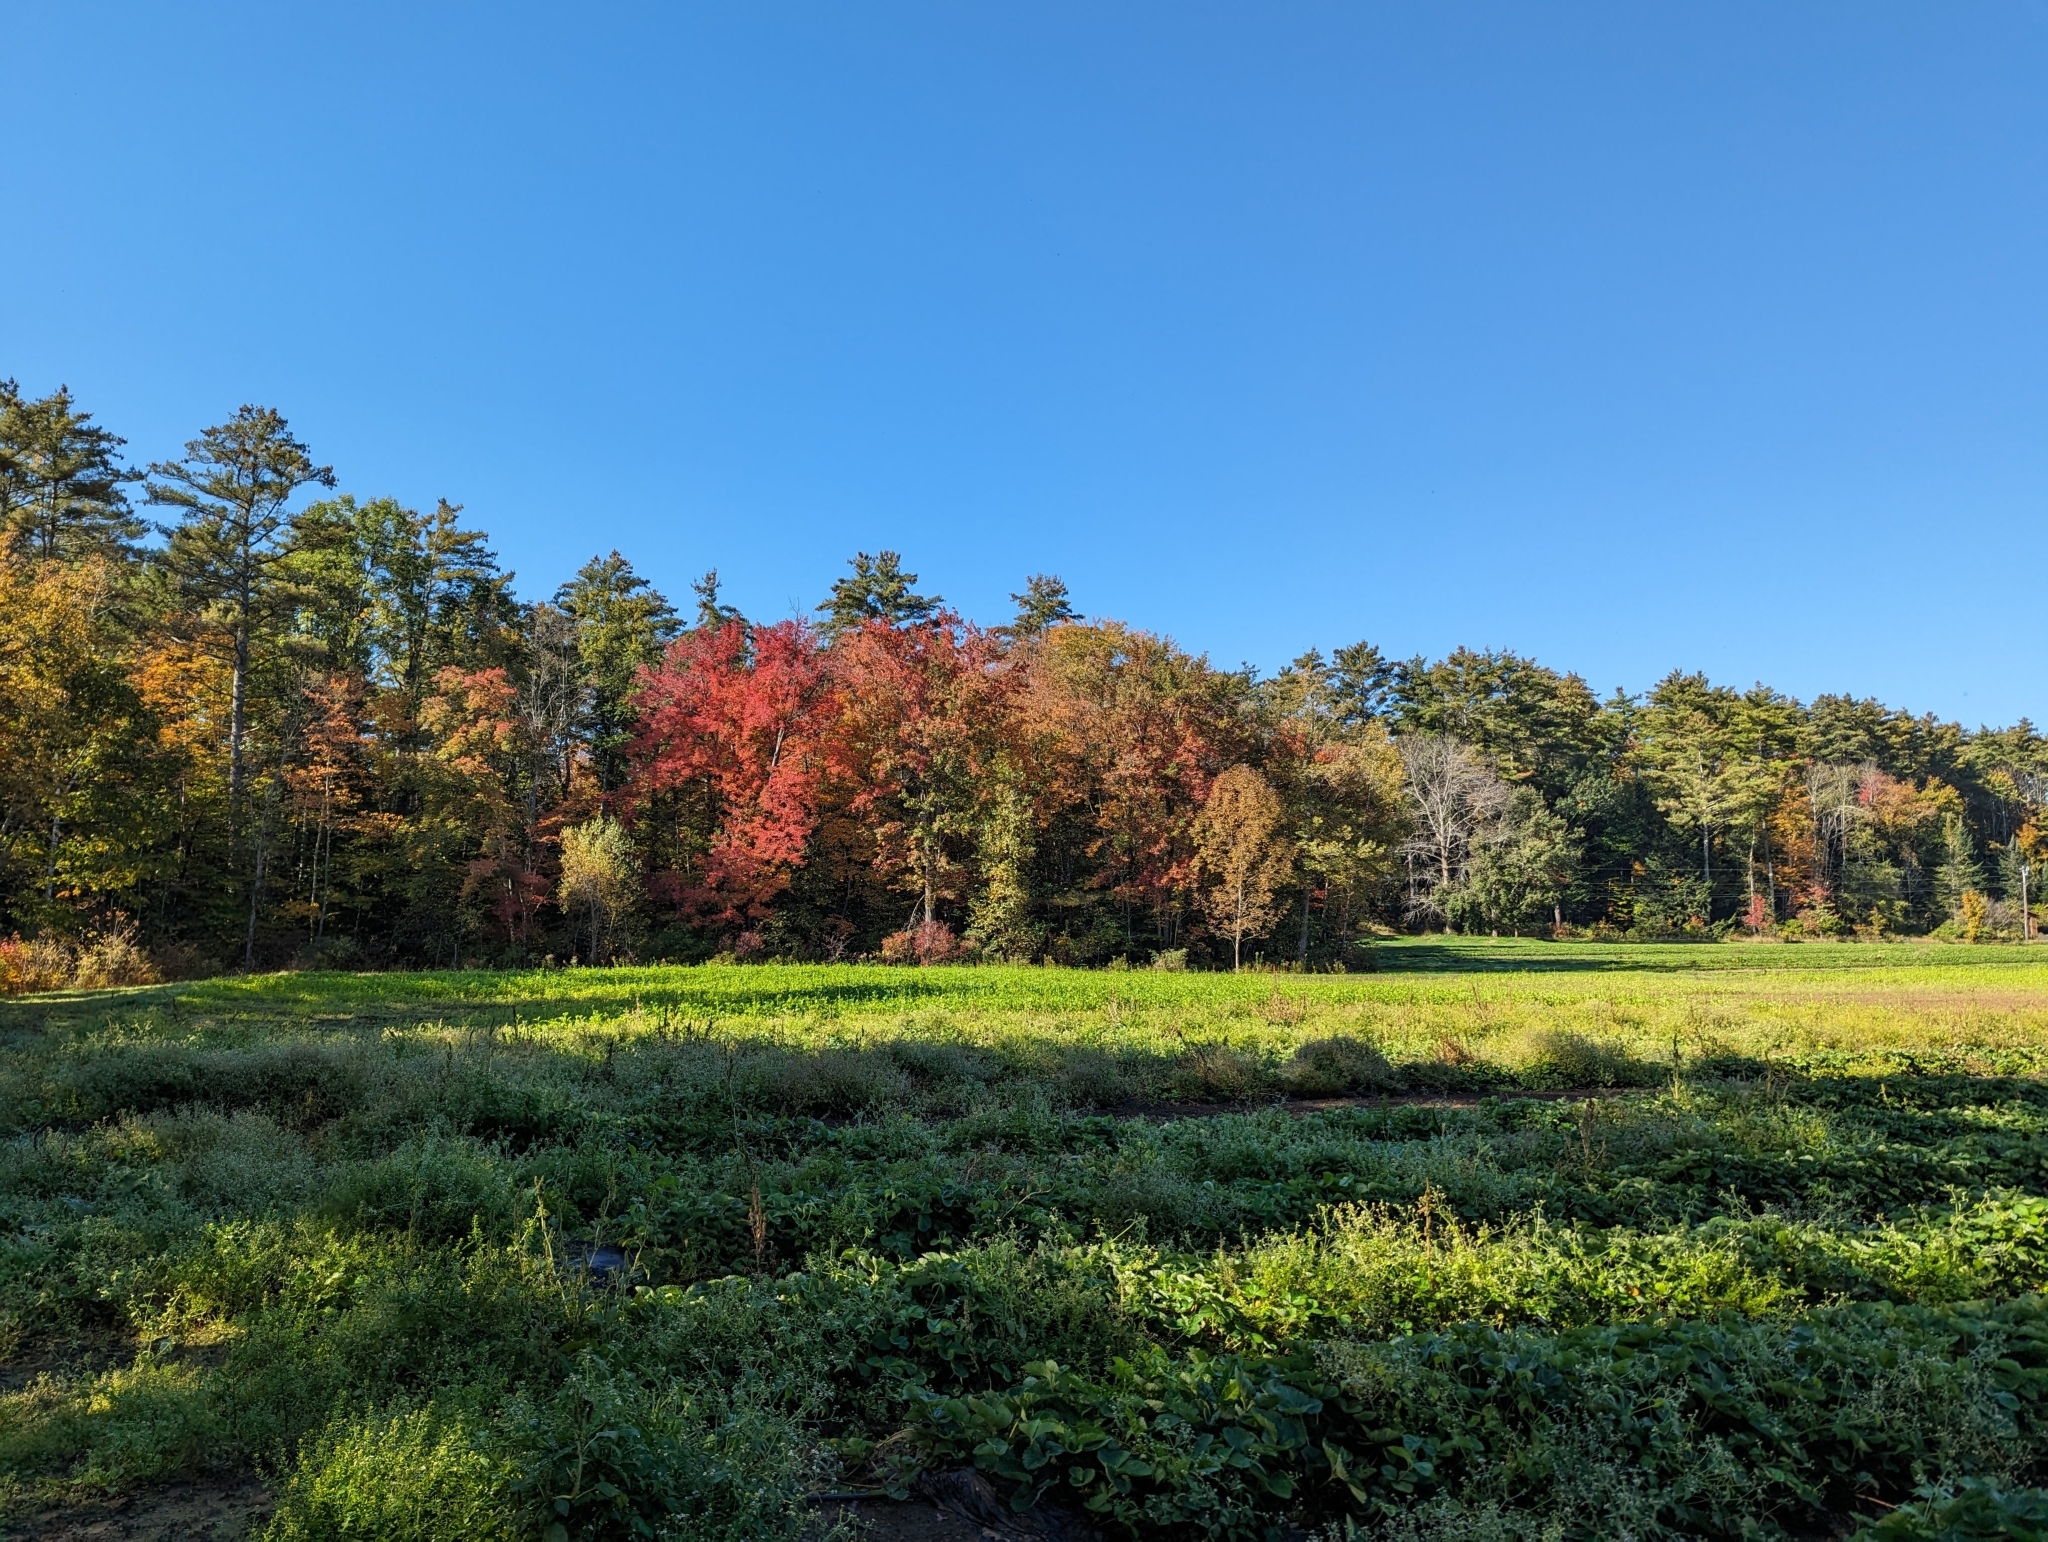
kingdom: Plantae
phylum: Tracheophyta
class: Pinopsida
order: Pinales
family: Pinaceae
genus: Pinus
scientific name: Pinus strobus
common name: Weymouth pine
